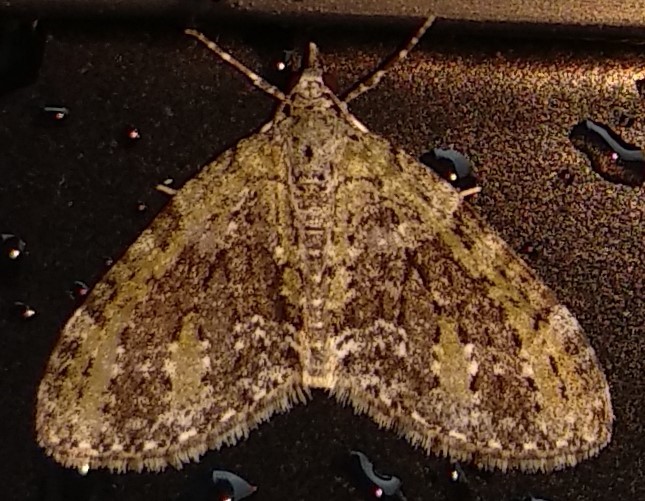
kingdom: Animalia
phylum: Arthropoda
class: Insecta
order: Lepidoptera
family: Geometridae
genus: Acasis
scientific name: Acasis viridata
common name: Olive-and-black carpet moth
